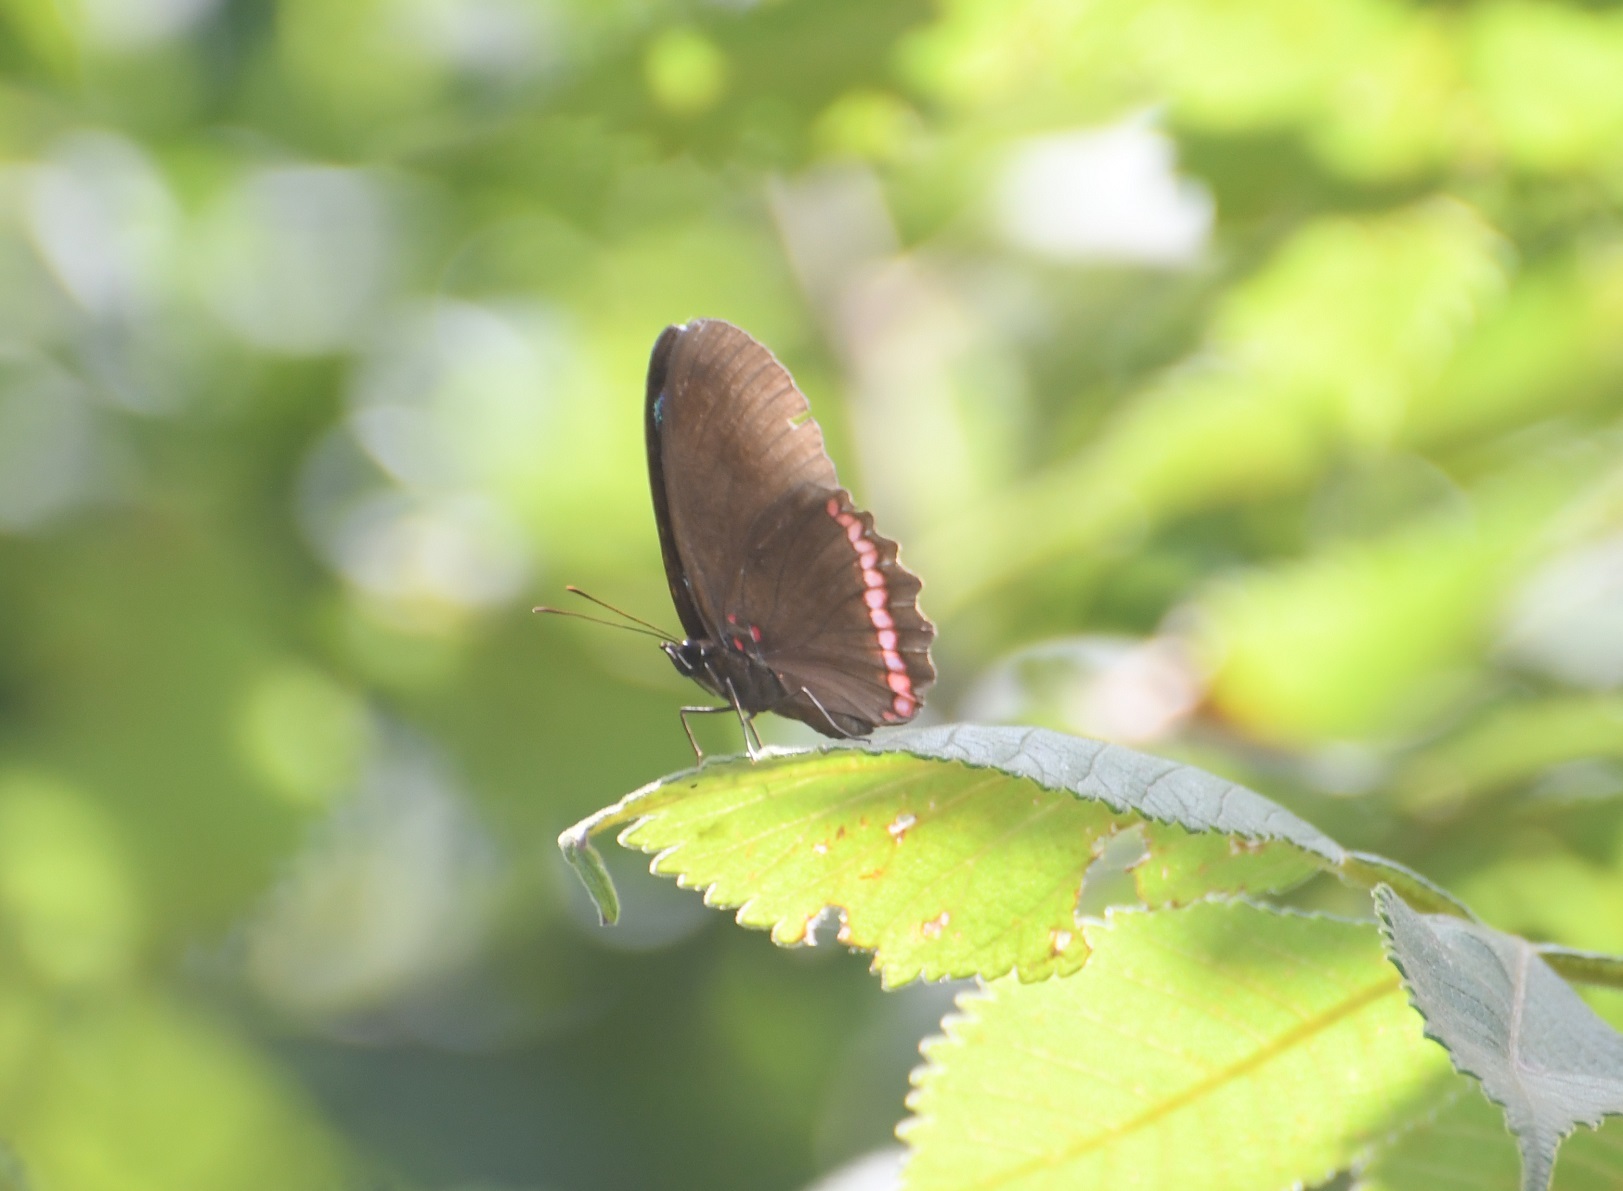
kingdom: Animalia
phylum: Arthropoda
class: Insecta
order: Lepidoptera
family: Nymphalidae
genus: Biblis
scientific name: Biblis aganisa
